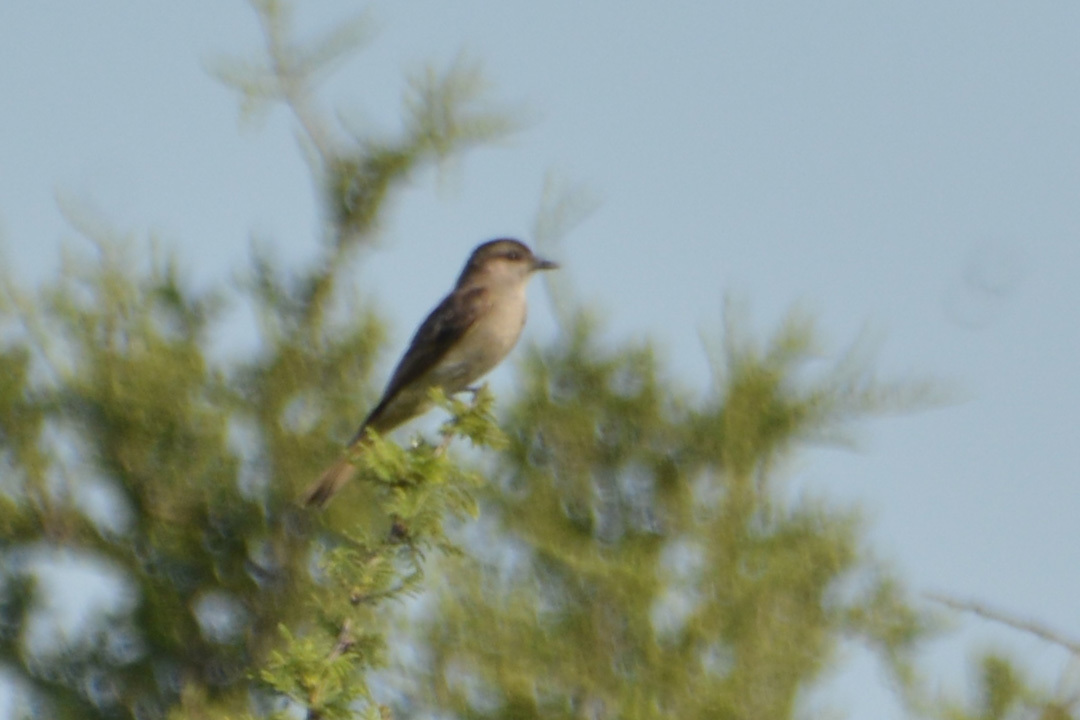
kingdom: Animalia
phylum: Chordata
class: Aves
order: Passeriformes
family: Tyrannidae
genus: Empidonomus
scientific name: Empidonomus aurantioatrocristatus
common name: Crowned slaty flycatcher
